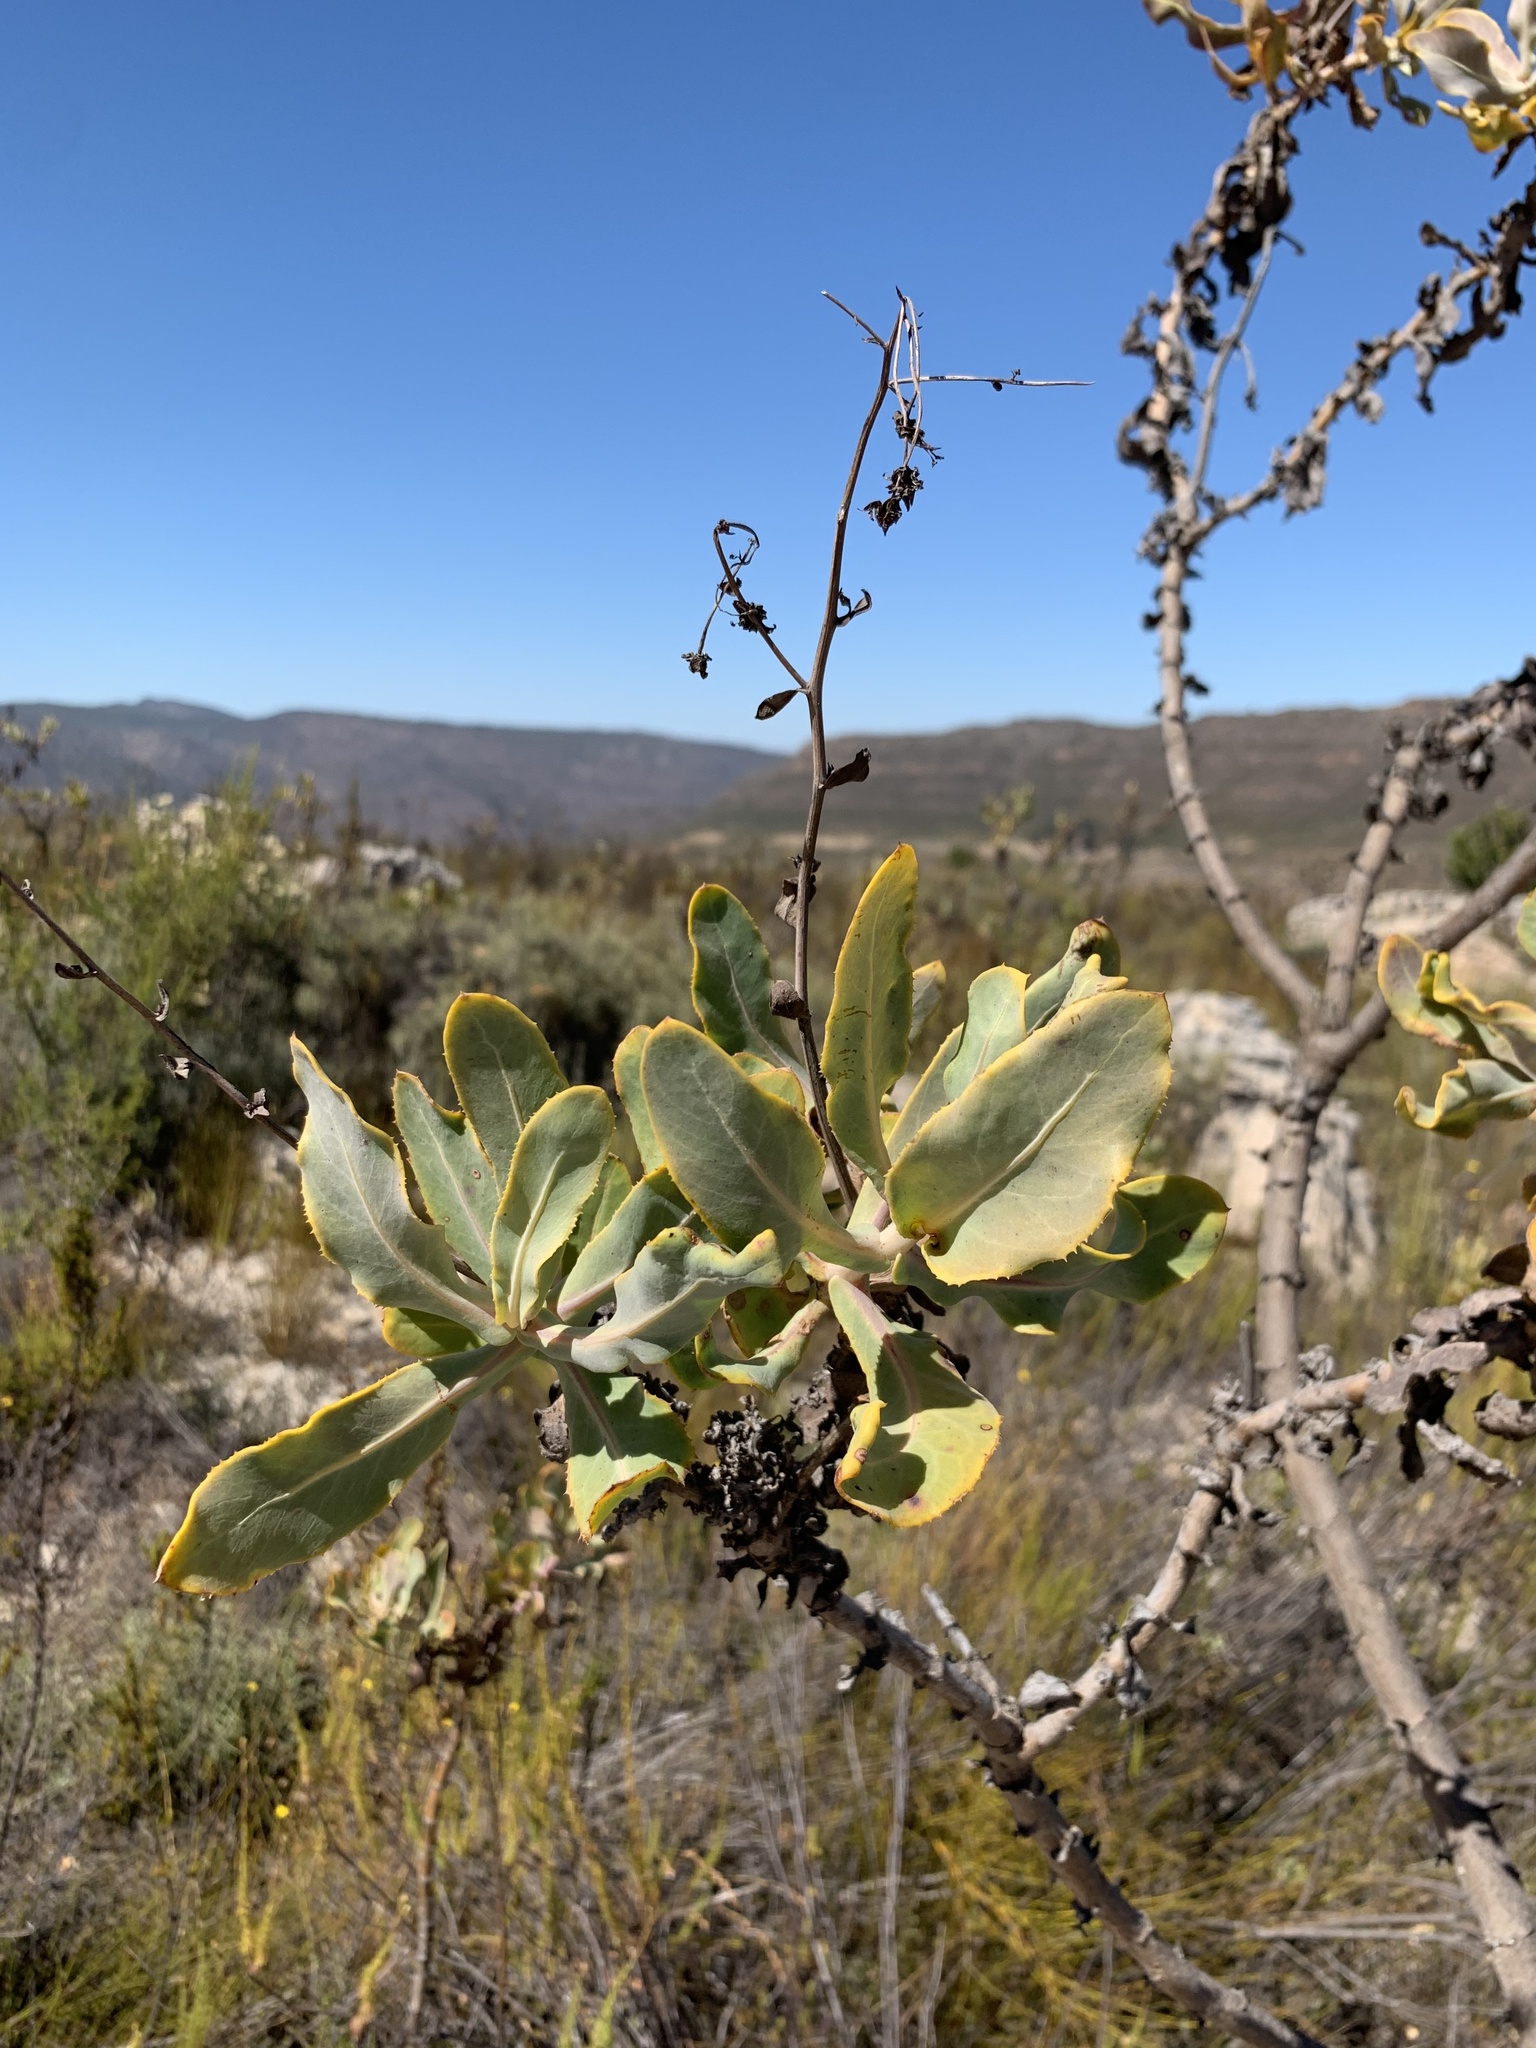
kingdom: Plantae
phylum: Tracheophyta
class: Magnoliopsida
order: Asterales
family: Asteraceae
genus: Othonna
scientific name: Othonna parviflora
